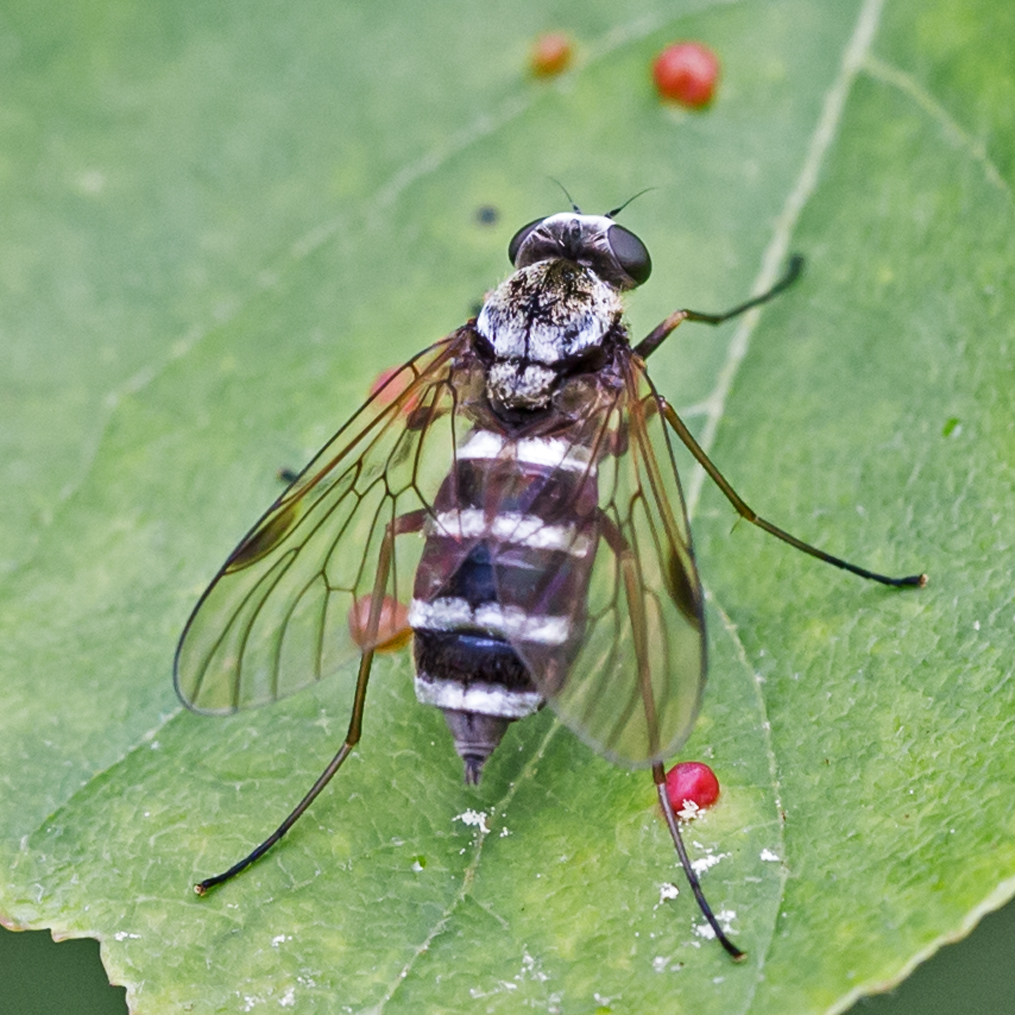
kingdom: Animalia
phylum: Arthropoda
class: Insecta
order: Diptera
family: Rhagionidae
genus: Chrysopilus
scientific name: Chrysopilus fasciatus
